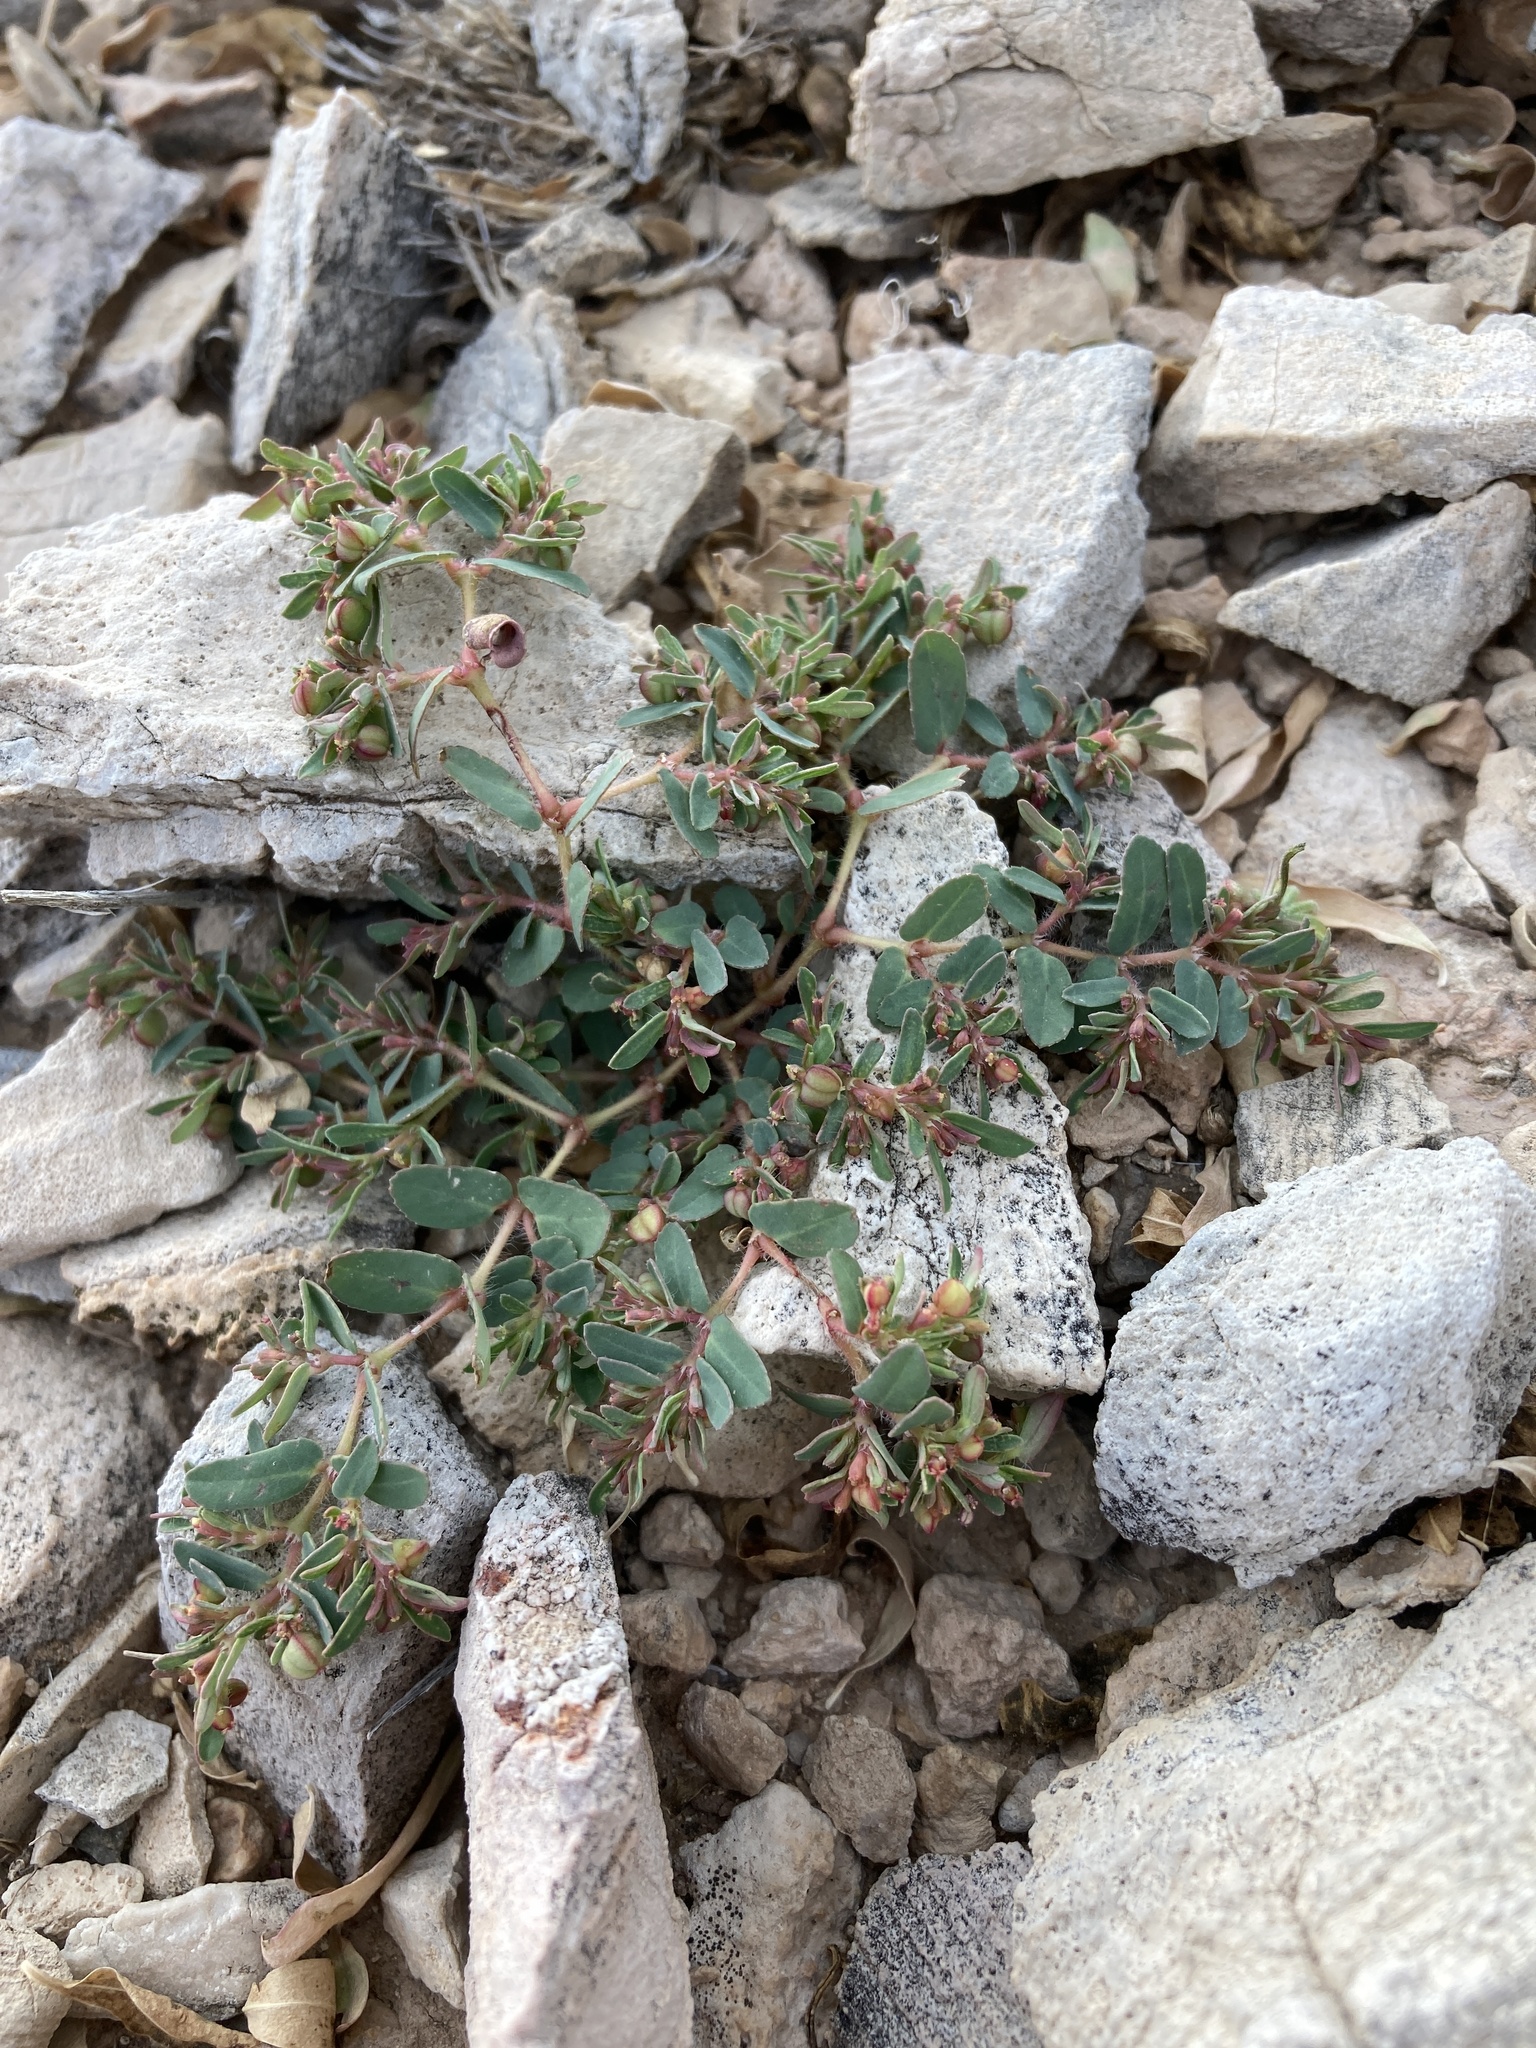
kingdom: Plantae
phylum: Tracheophyta
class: Magnoliopsida
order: Malpighiales
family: Euphorbiaceae
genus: Euphorbia
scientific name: Euphorbia serrula
